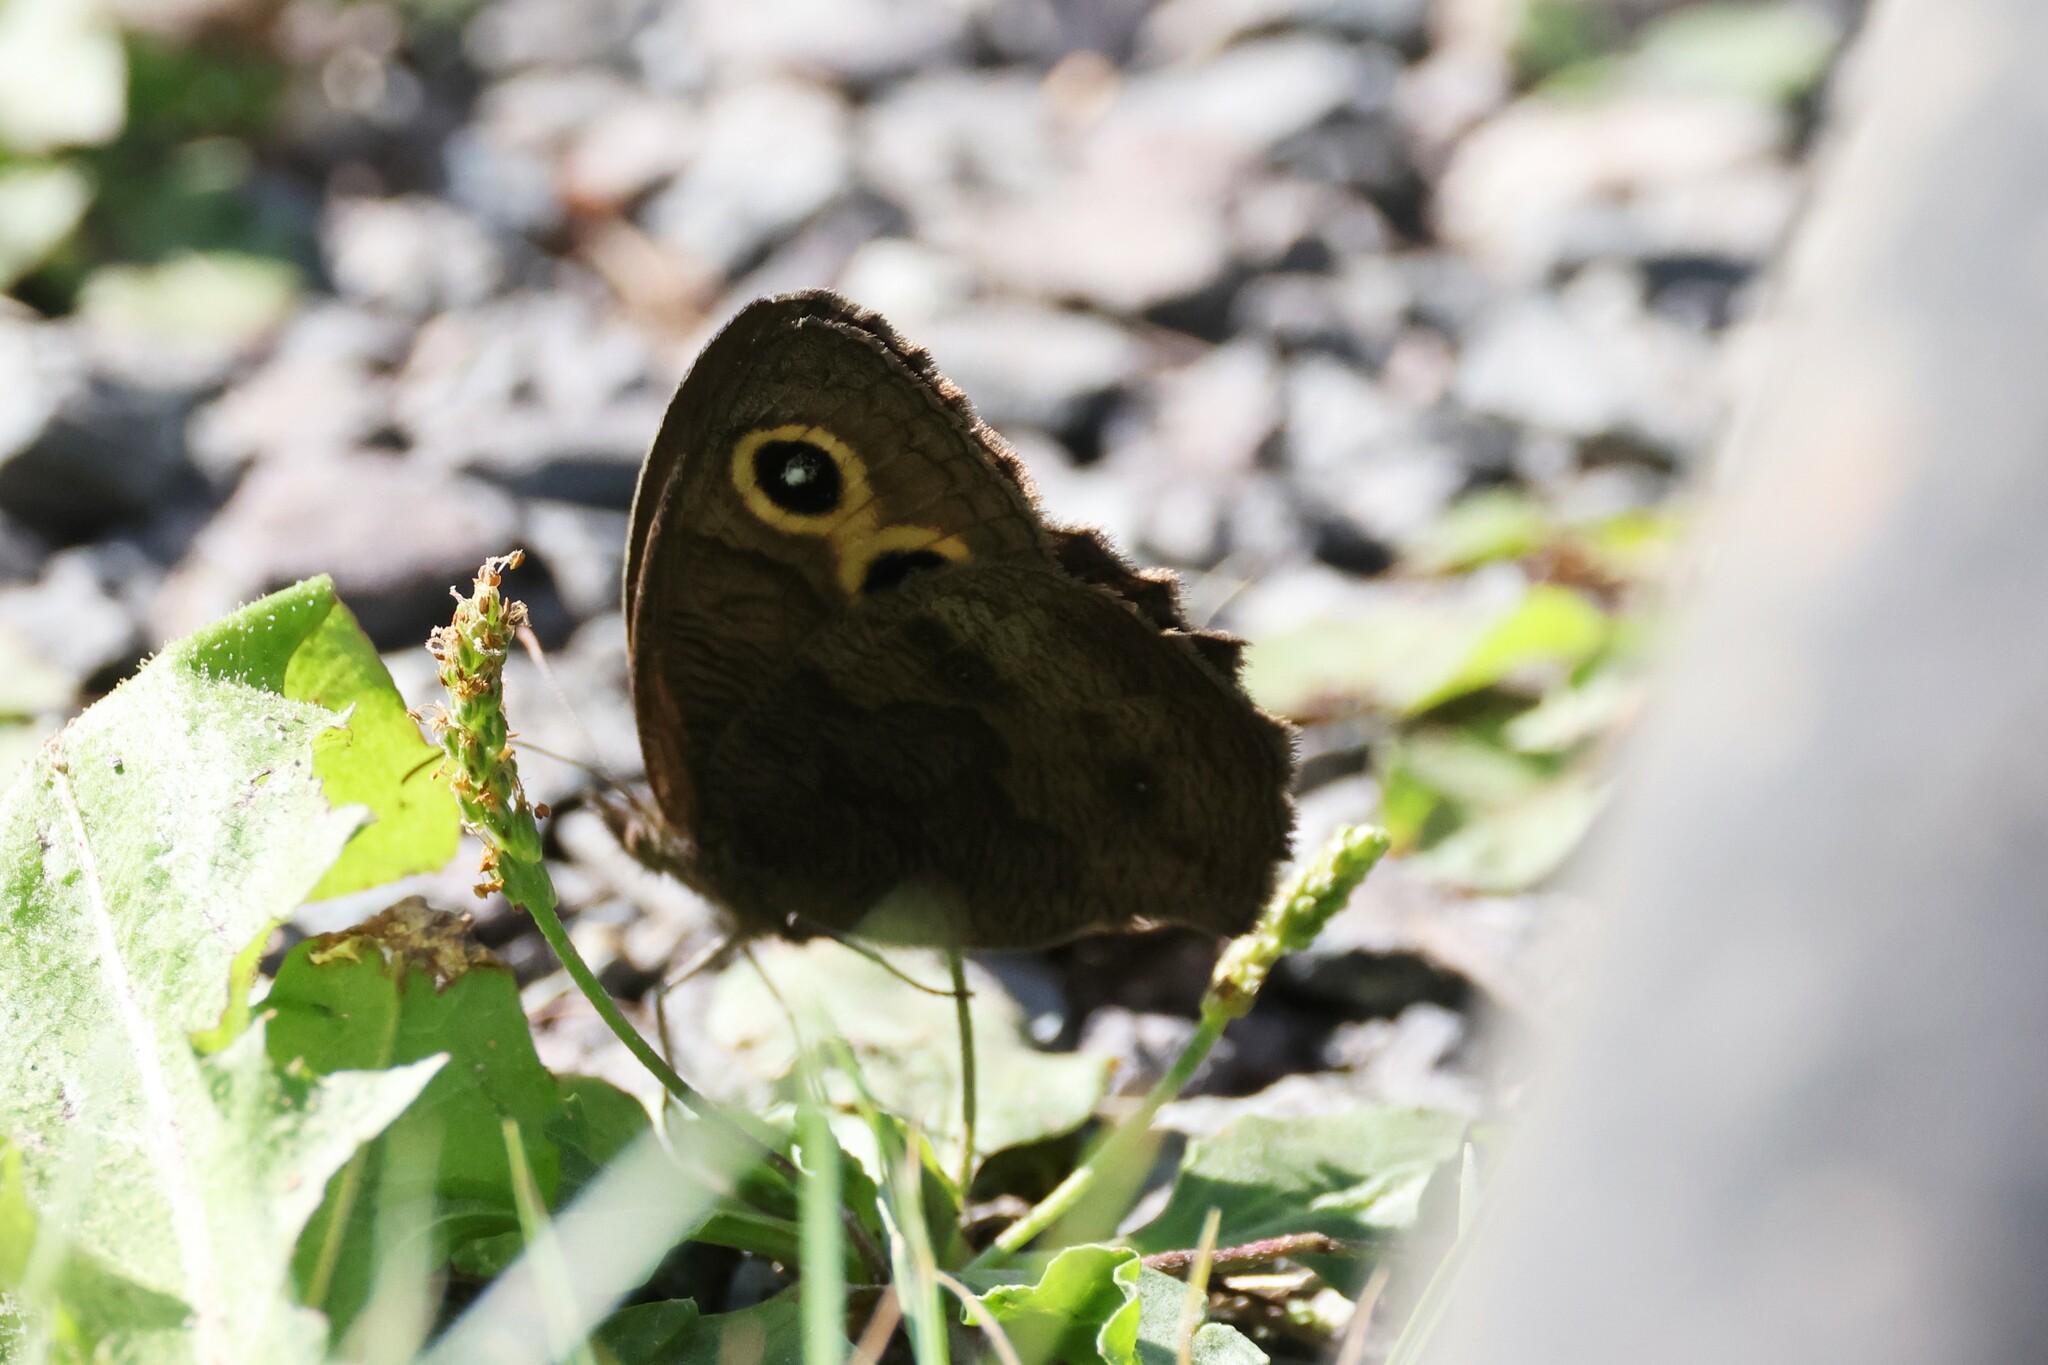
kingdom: Animalia
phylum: Arthropoda
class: Insecta
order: Lepidoptera
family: Nymphalidae
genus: Cercyonis
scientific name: Cercyonis pegala
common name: Common wood-nymph
